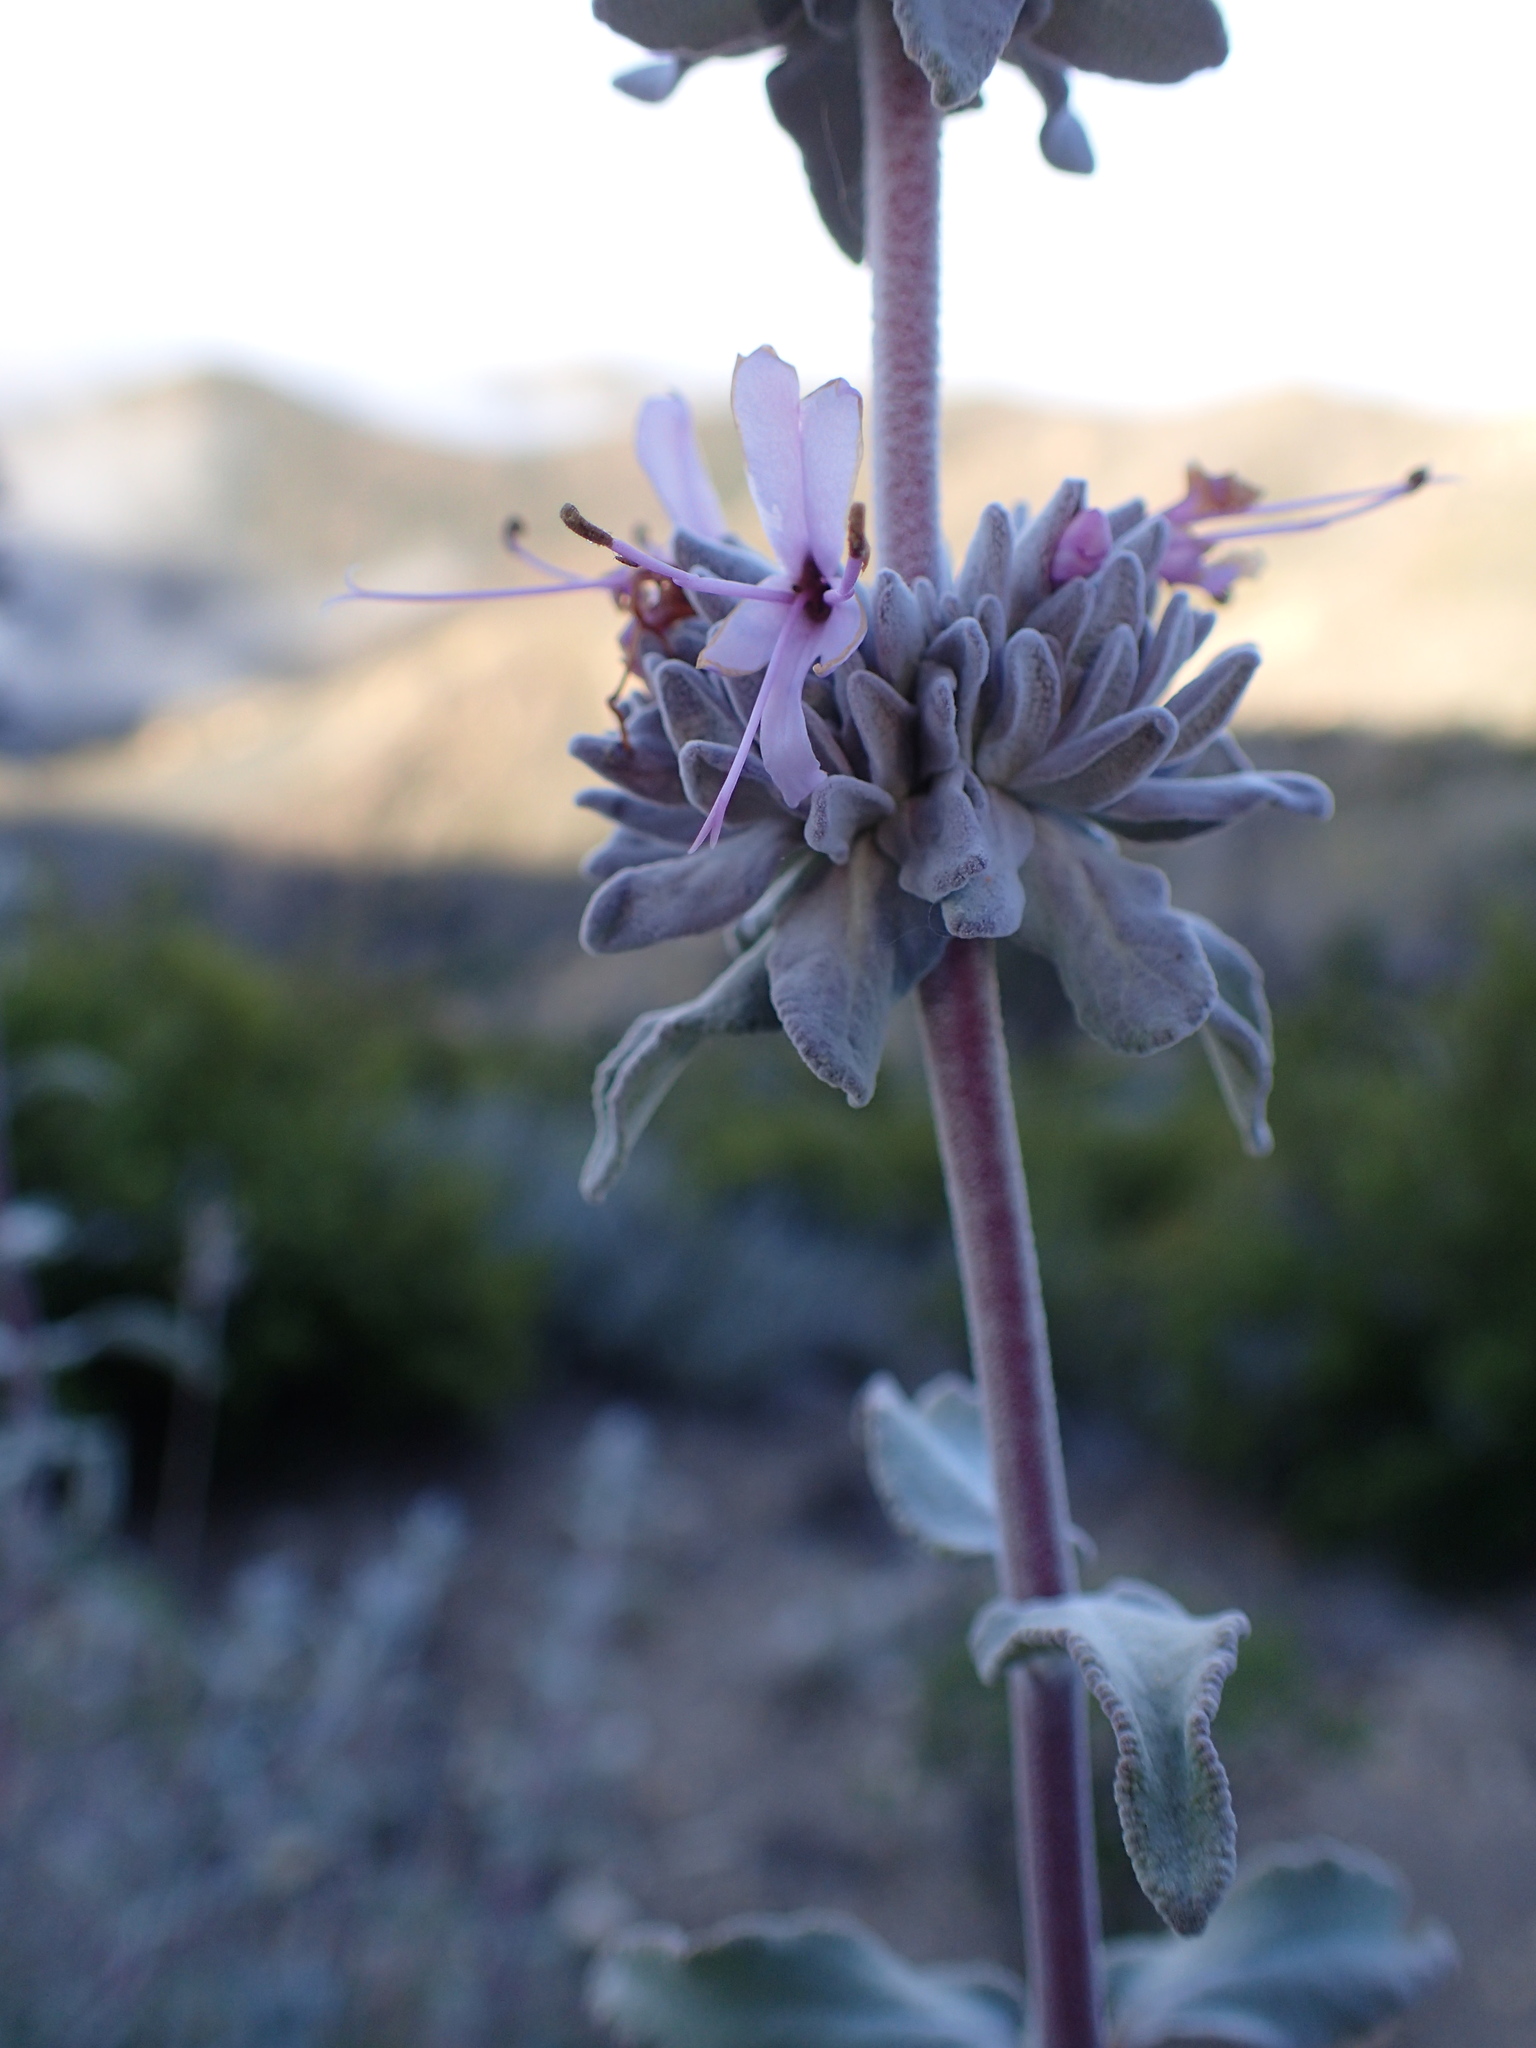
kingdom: Plantae
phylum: Tracheophyta
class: Magnoliopsida
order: Lamiales
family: Lamiaceae
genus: Salvia
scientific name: Salvia leucophylla
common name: Purple sage
